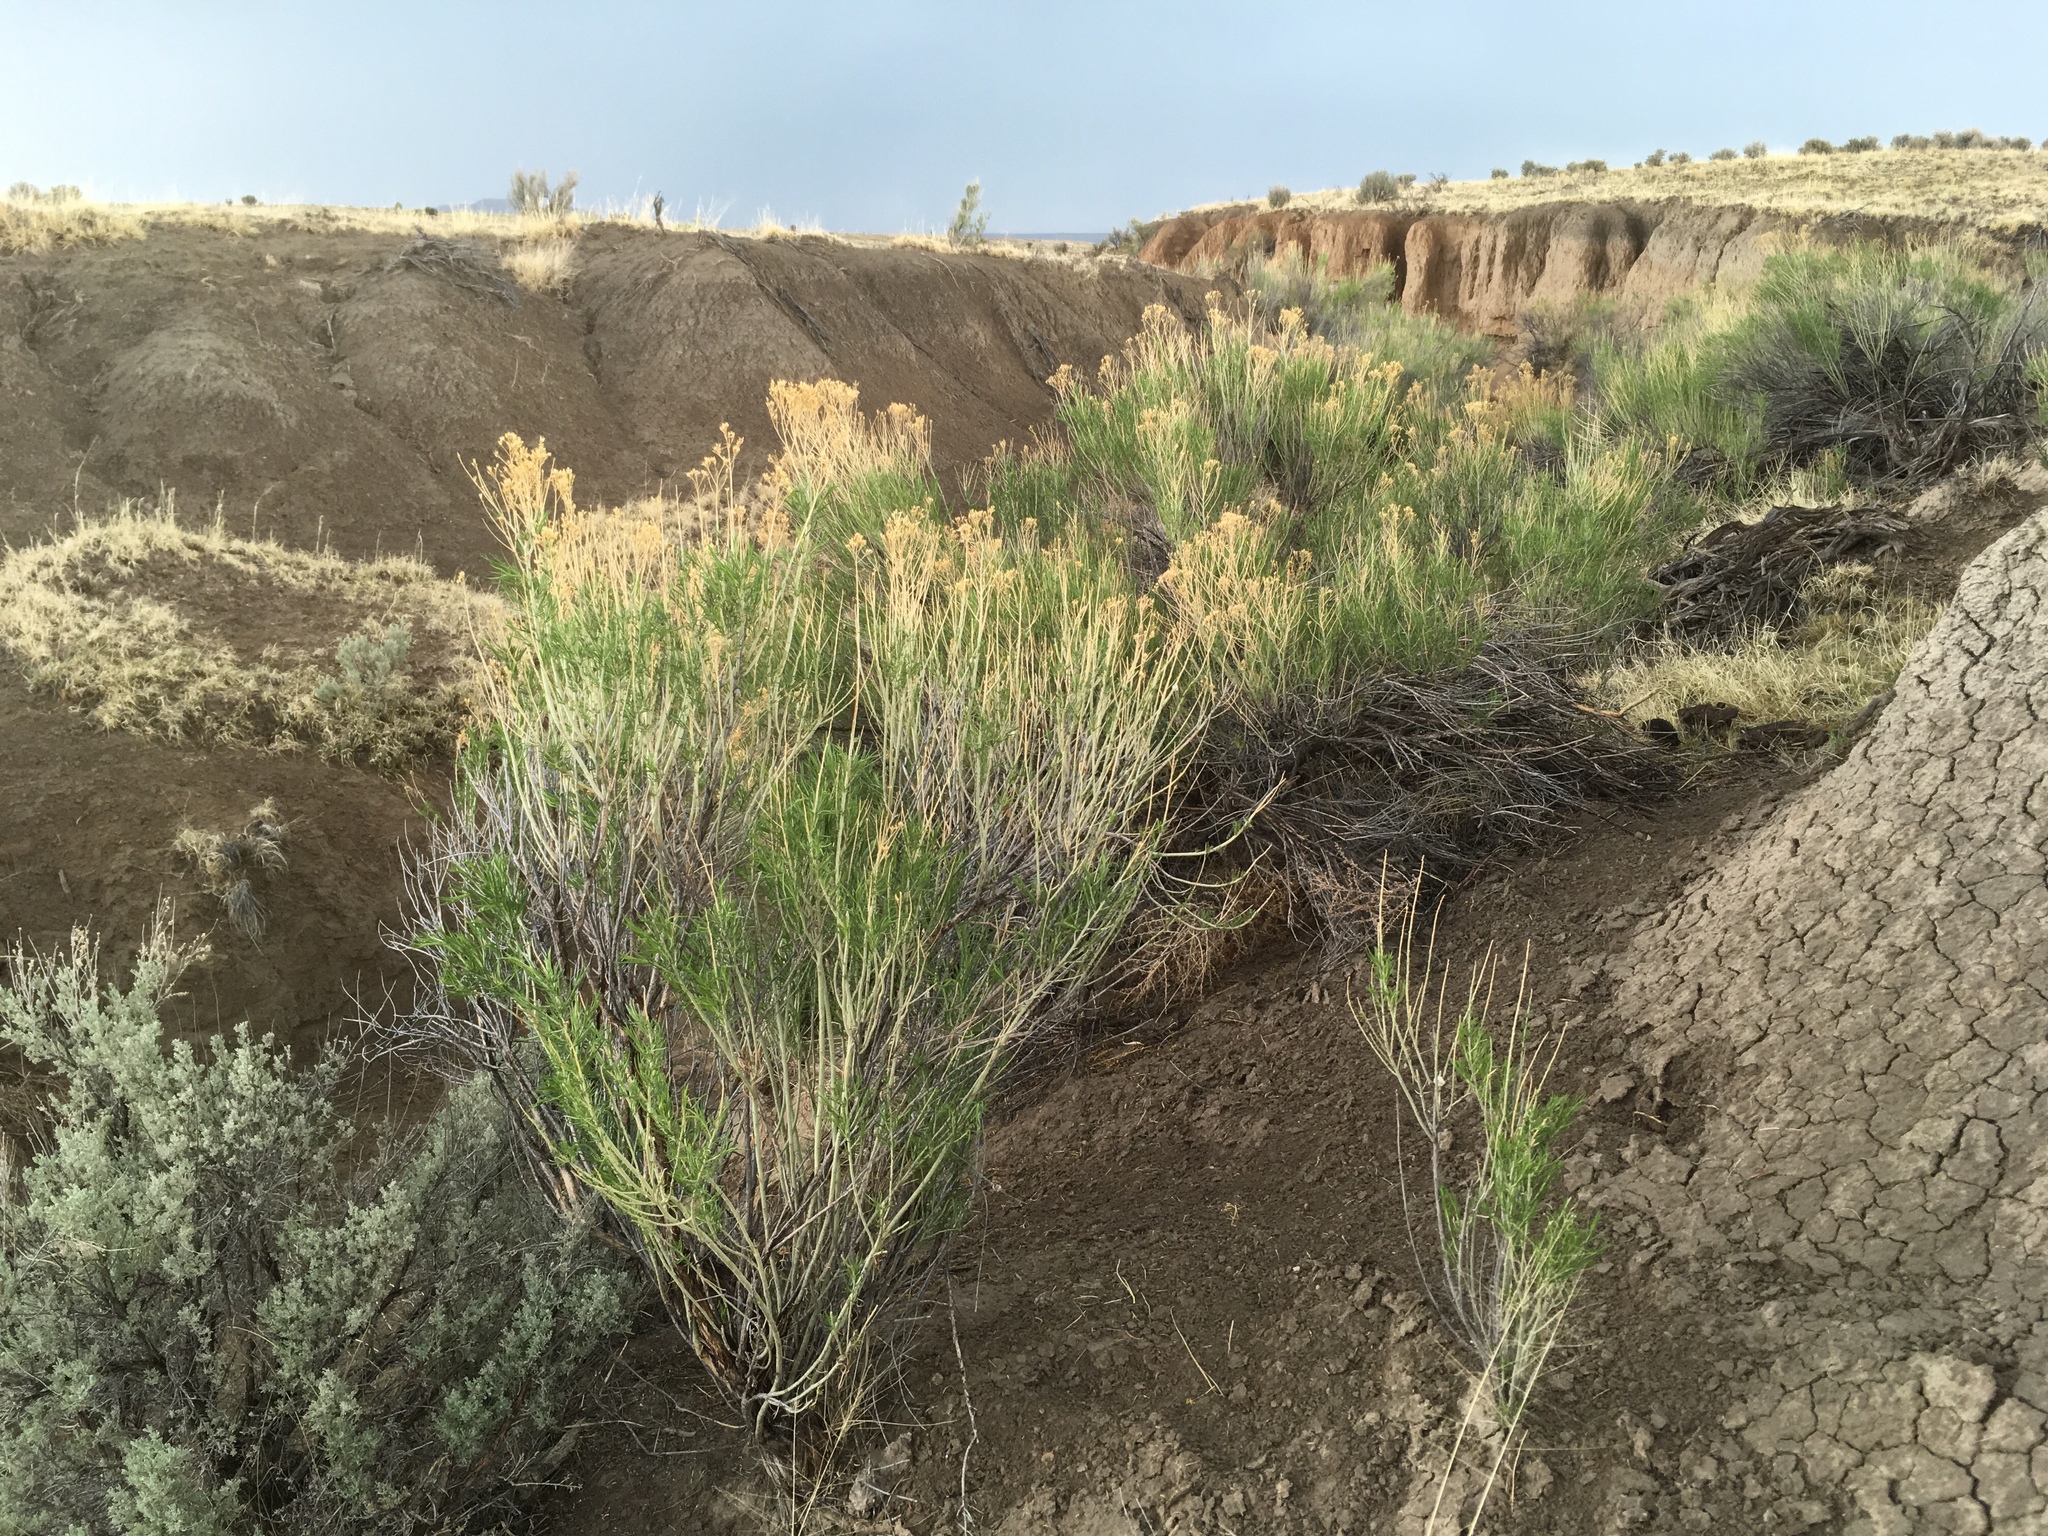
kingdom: Plantae
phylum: Tracheophyta
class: Magnoliopsida
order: Asterales
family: Asteraceae
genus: Ericameria
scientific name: Ericameria nauseosa
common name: Rubber rabbitbrush
